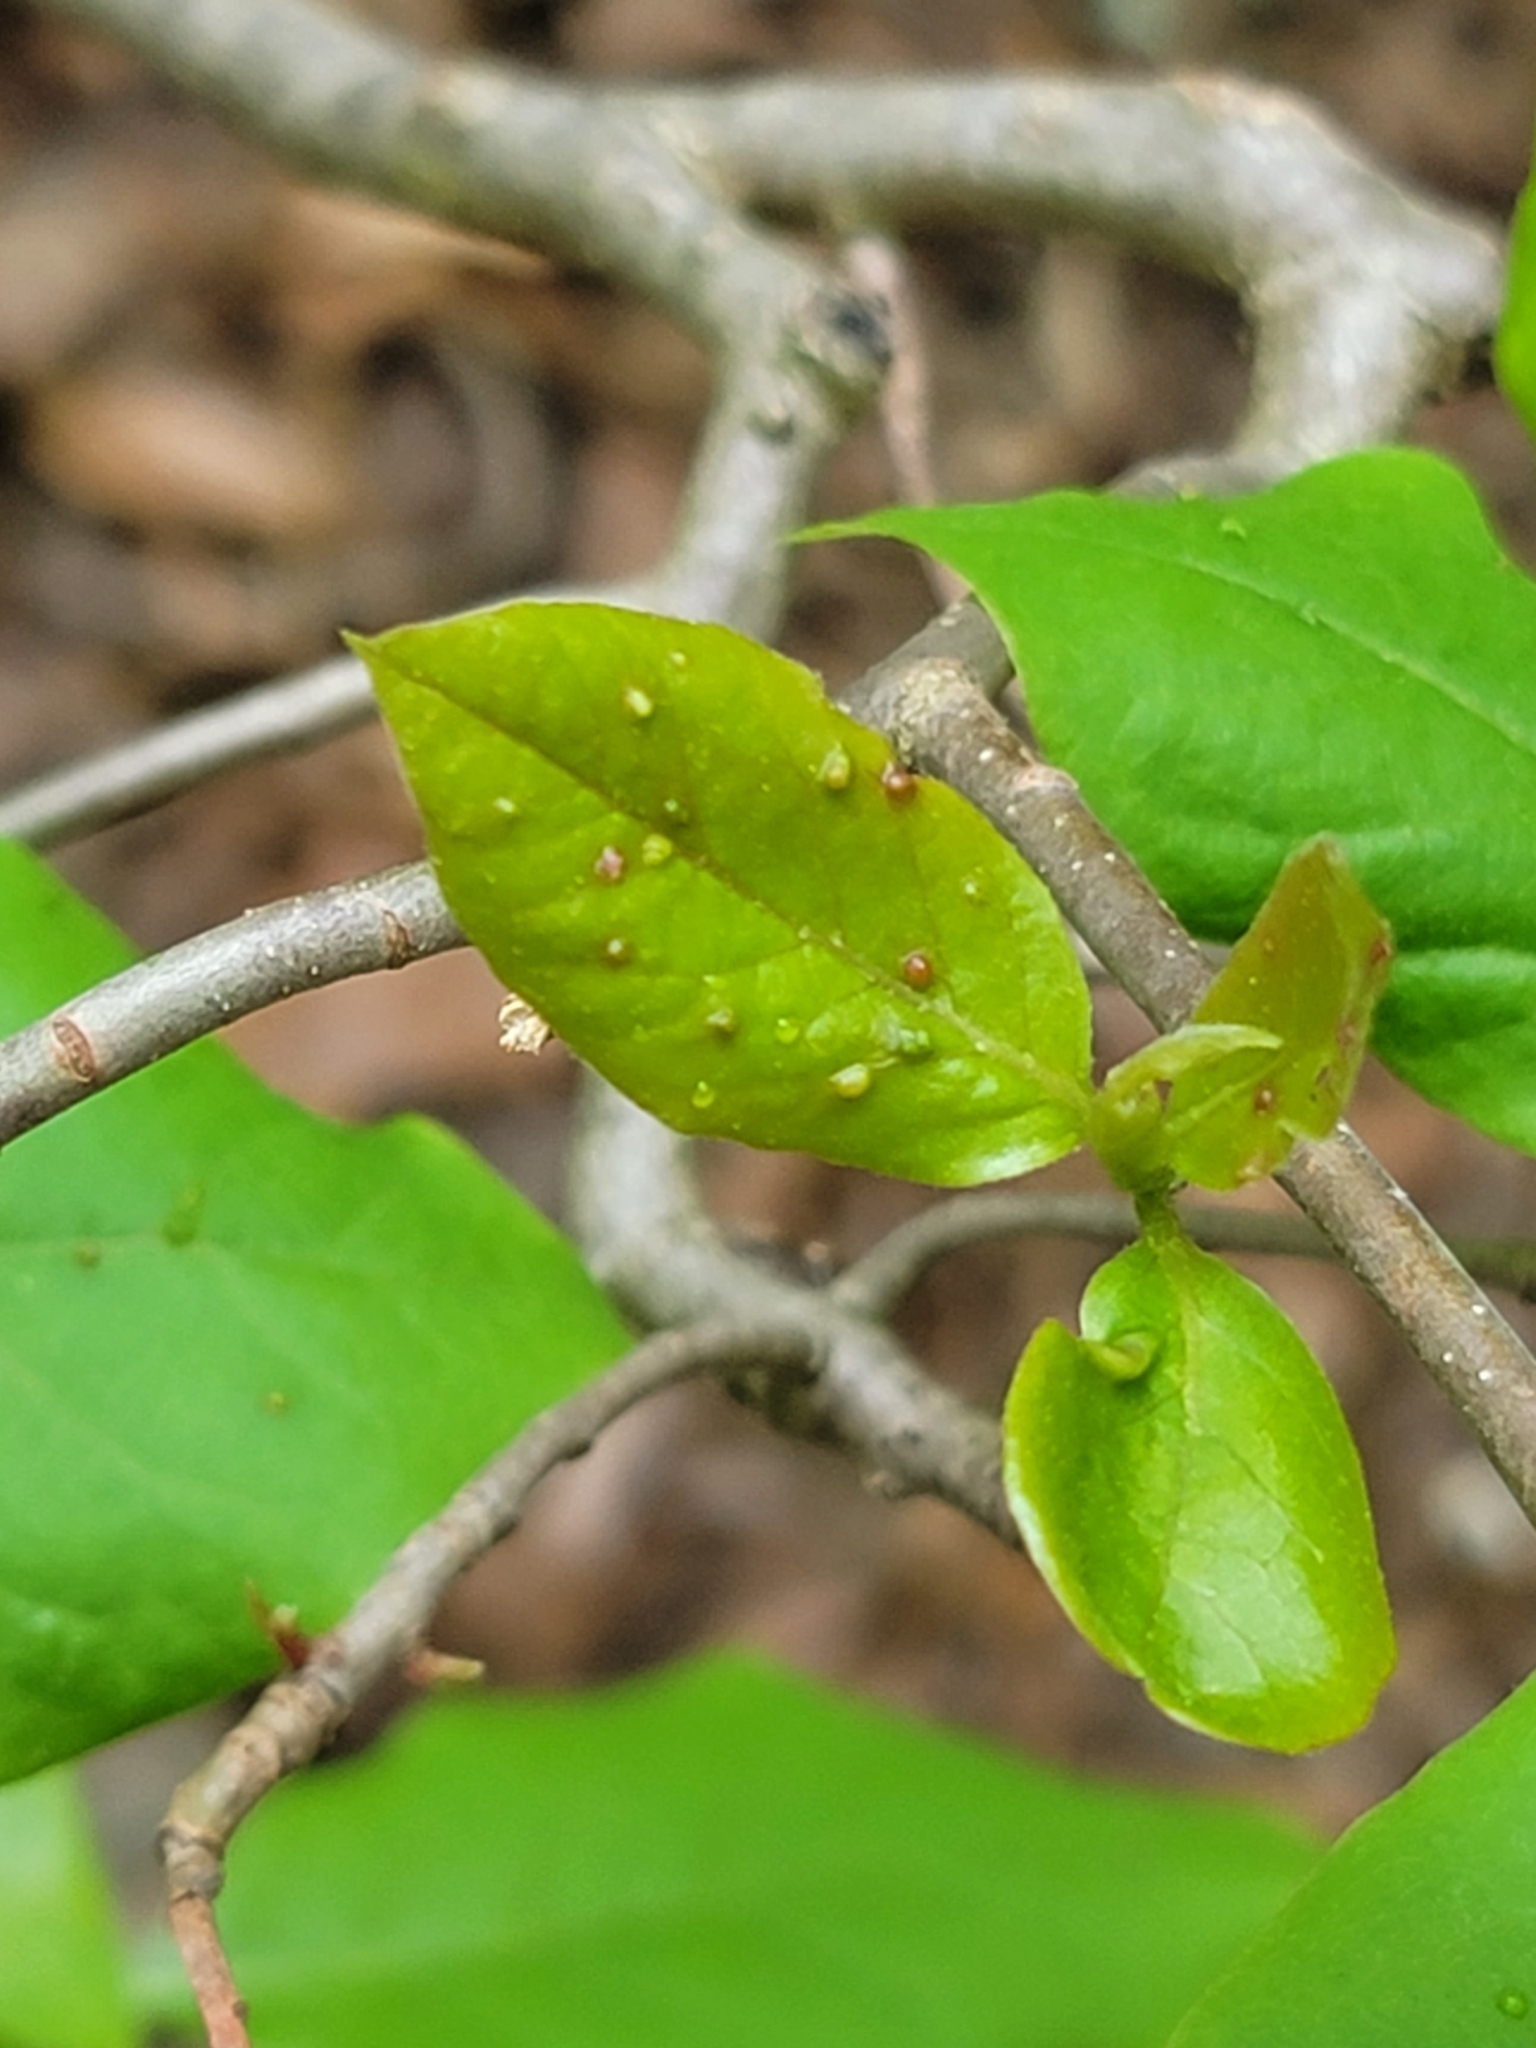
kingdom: Animalia
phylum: Arthropoda
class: Arachnida
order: Trombidiformes
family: Eriophyidae
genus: Aceria
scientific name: Aceria
